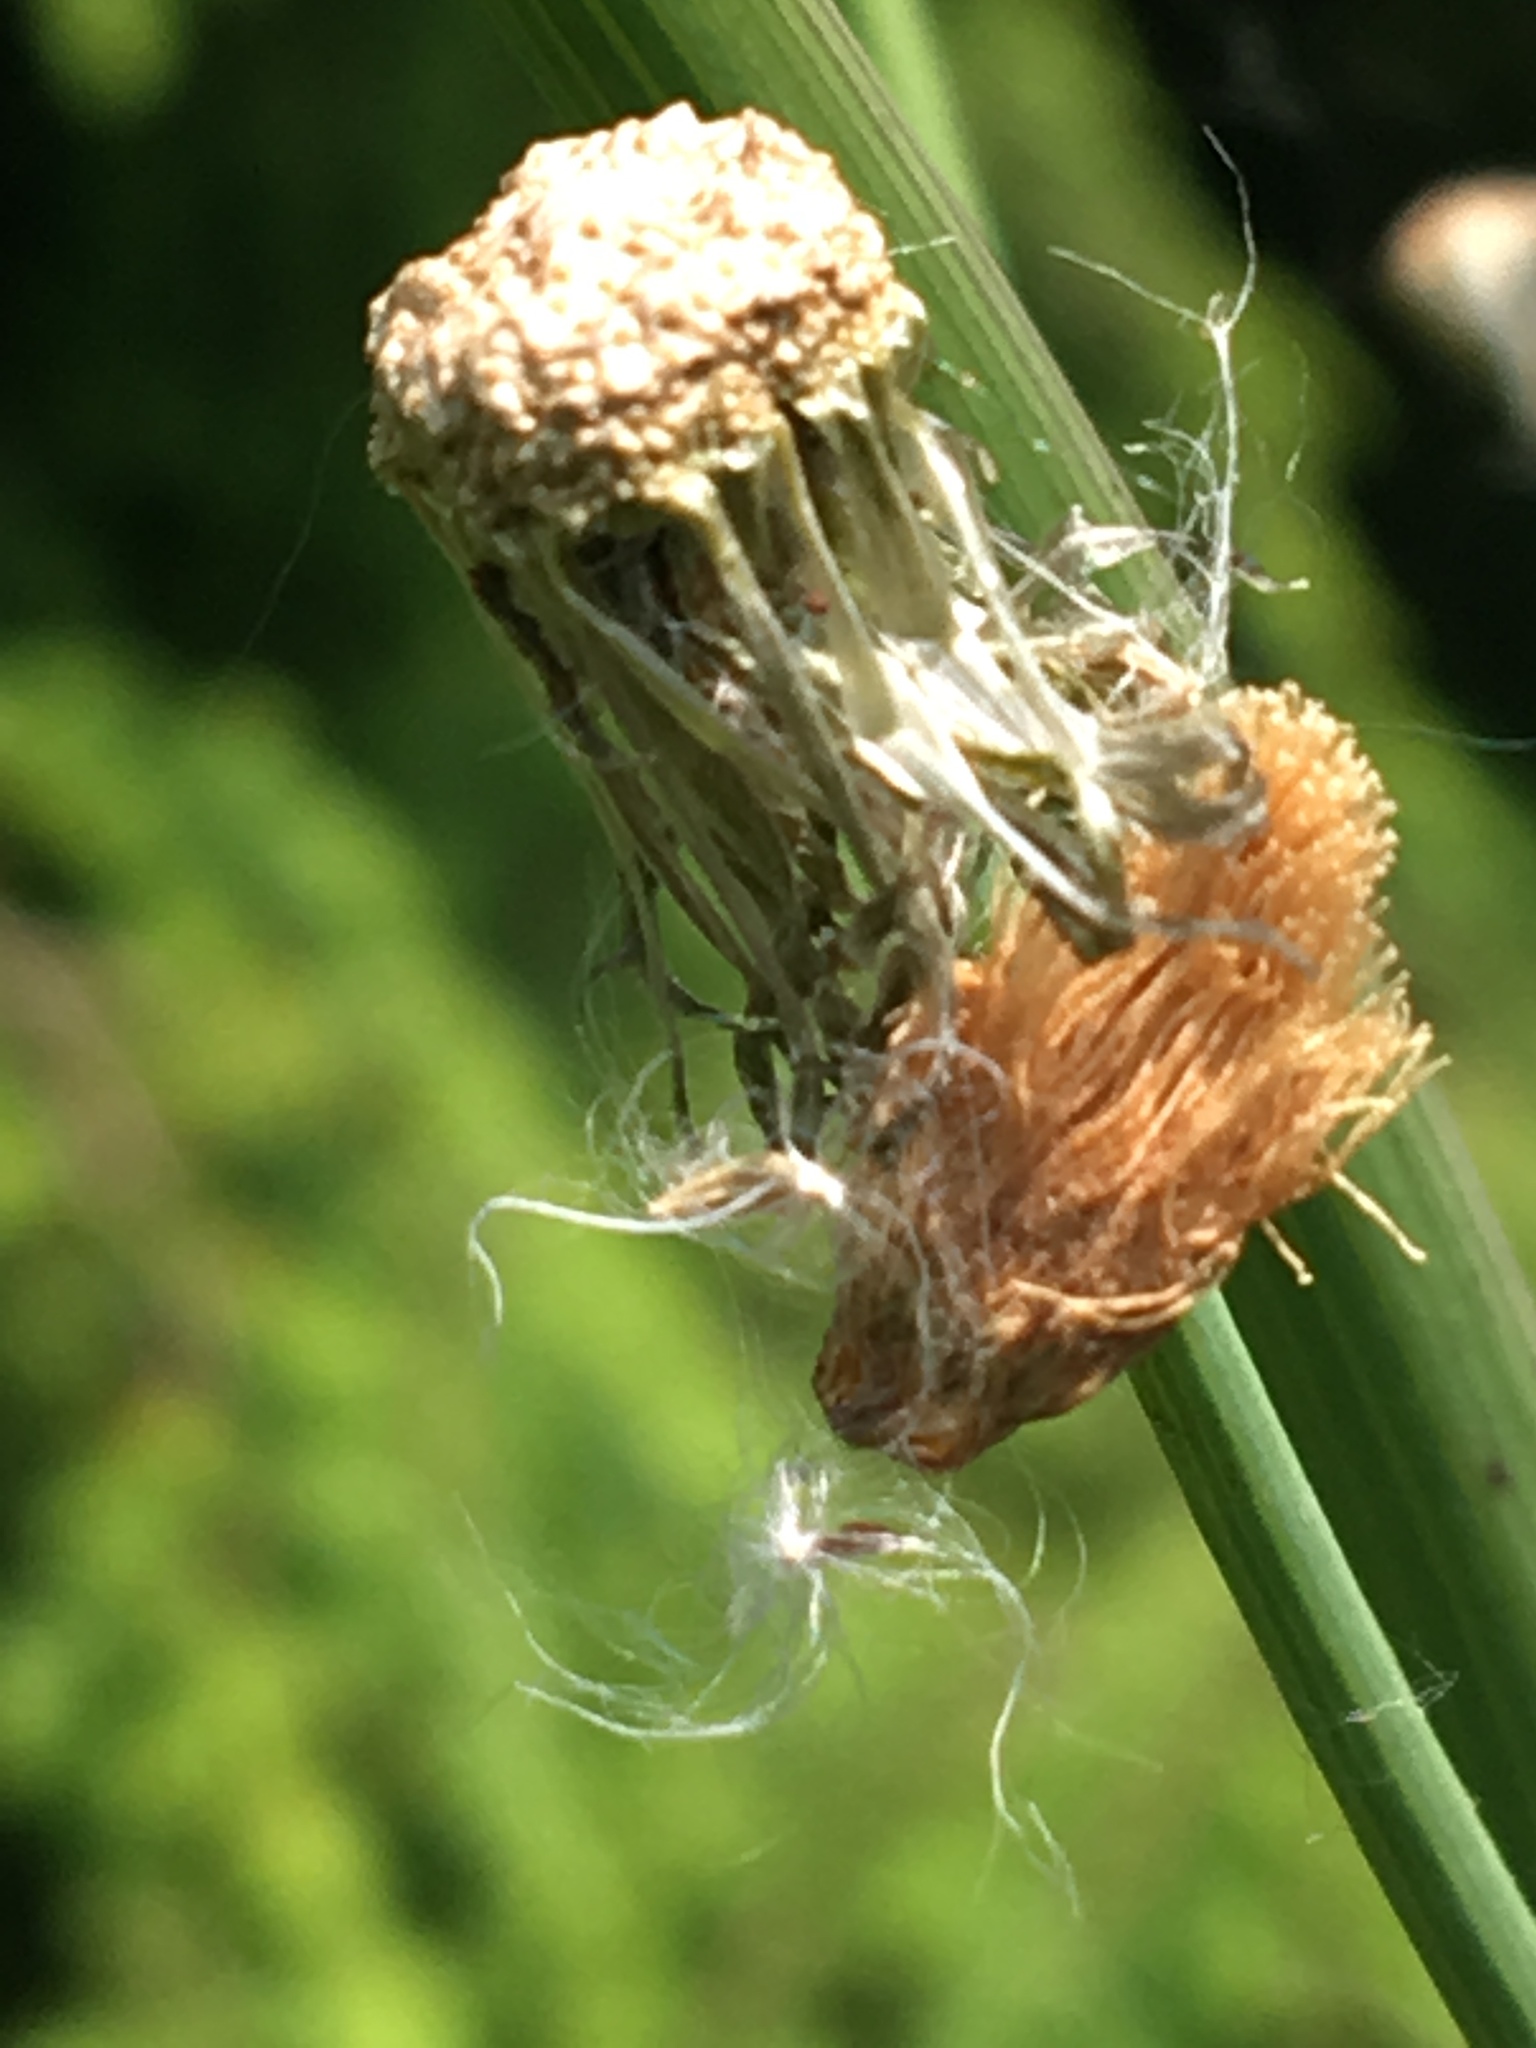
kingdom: Plantae
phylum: Tracheophyta
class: Magnoliopsida
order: Asterales
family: Asteraceae
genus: Sonchus
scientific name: Sonchus asper
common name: Prickly sow-thistle
